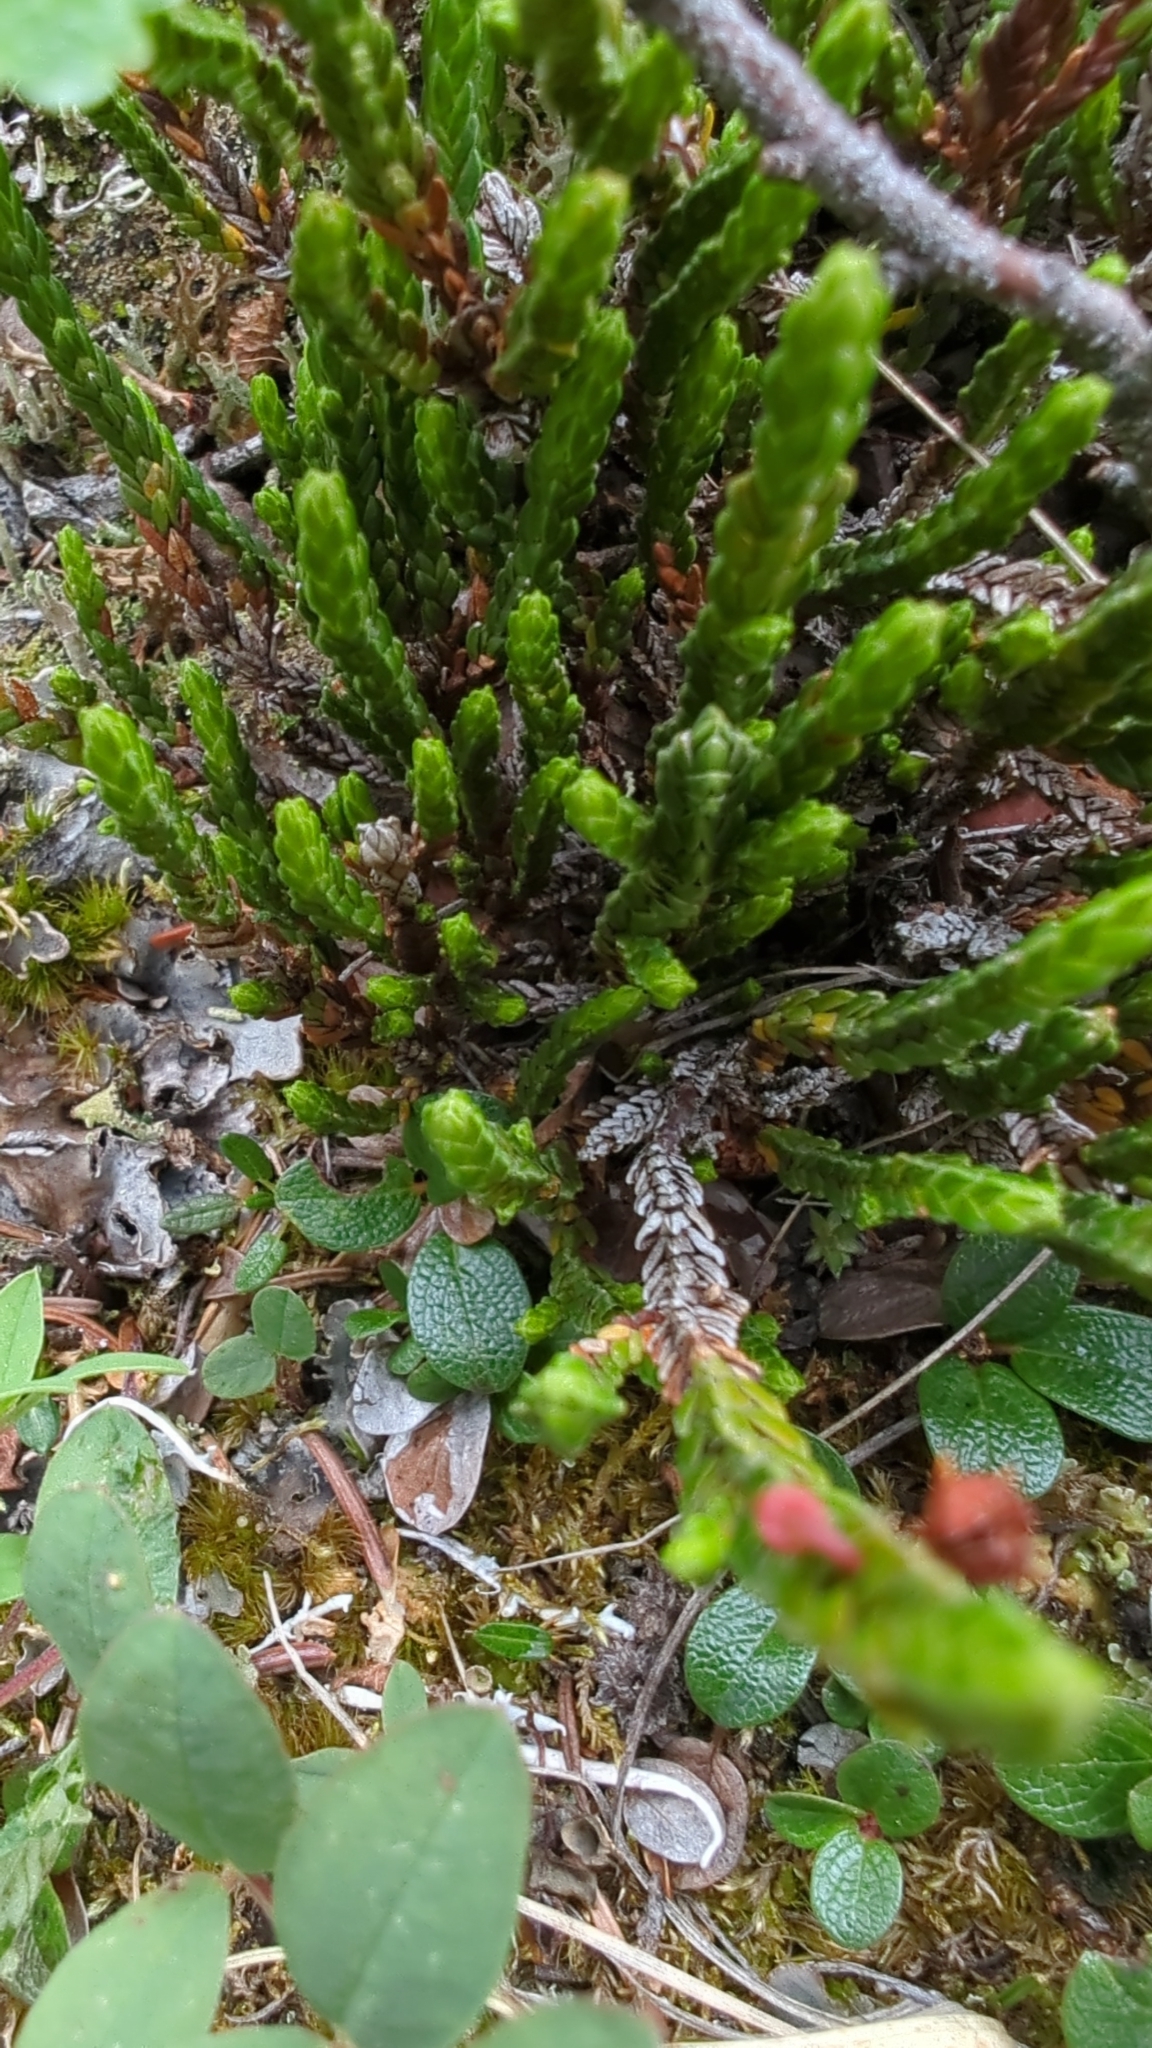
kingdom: Plantae
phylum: Tracheophyta
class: Magnoliopsida
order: Ericales
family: Ericaceae
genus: Cassiope
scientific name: Cassiope tetragona
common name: Arctic bell heather
